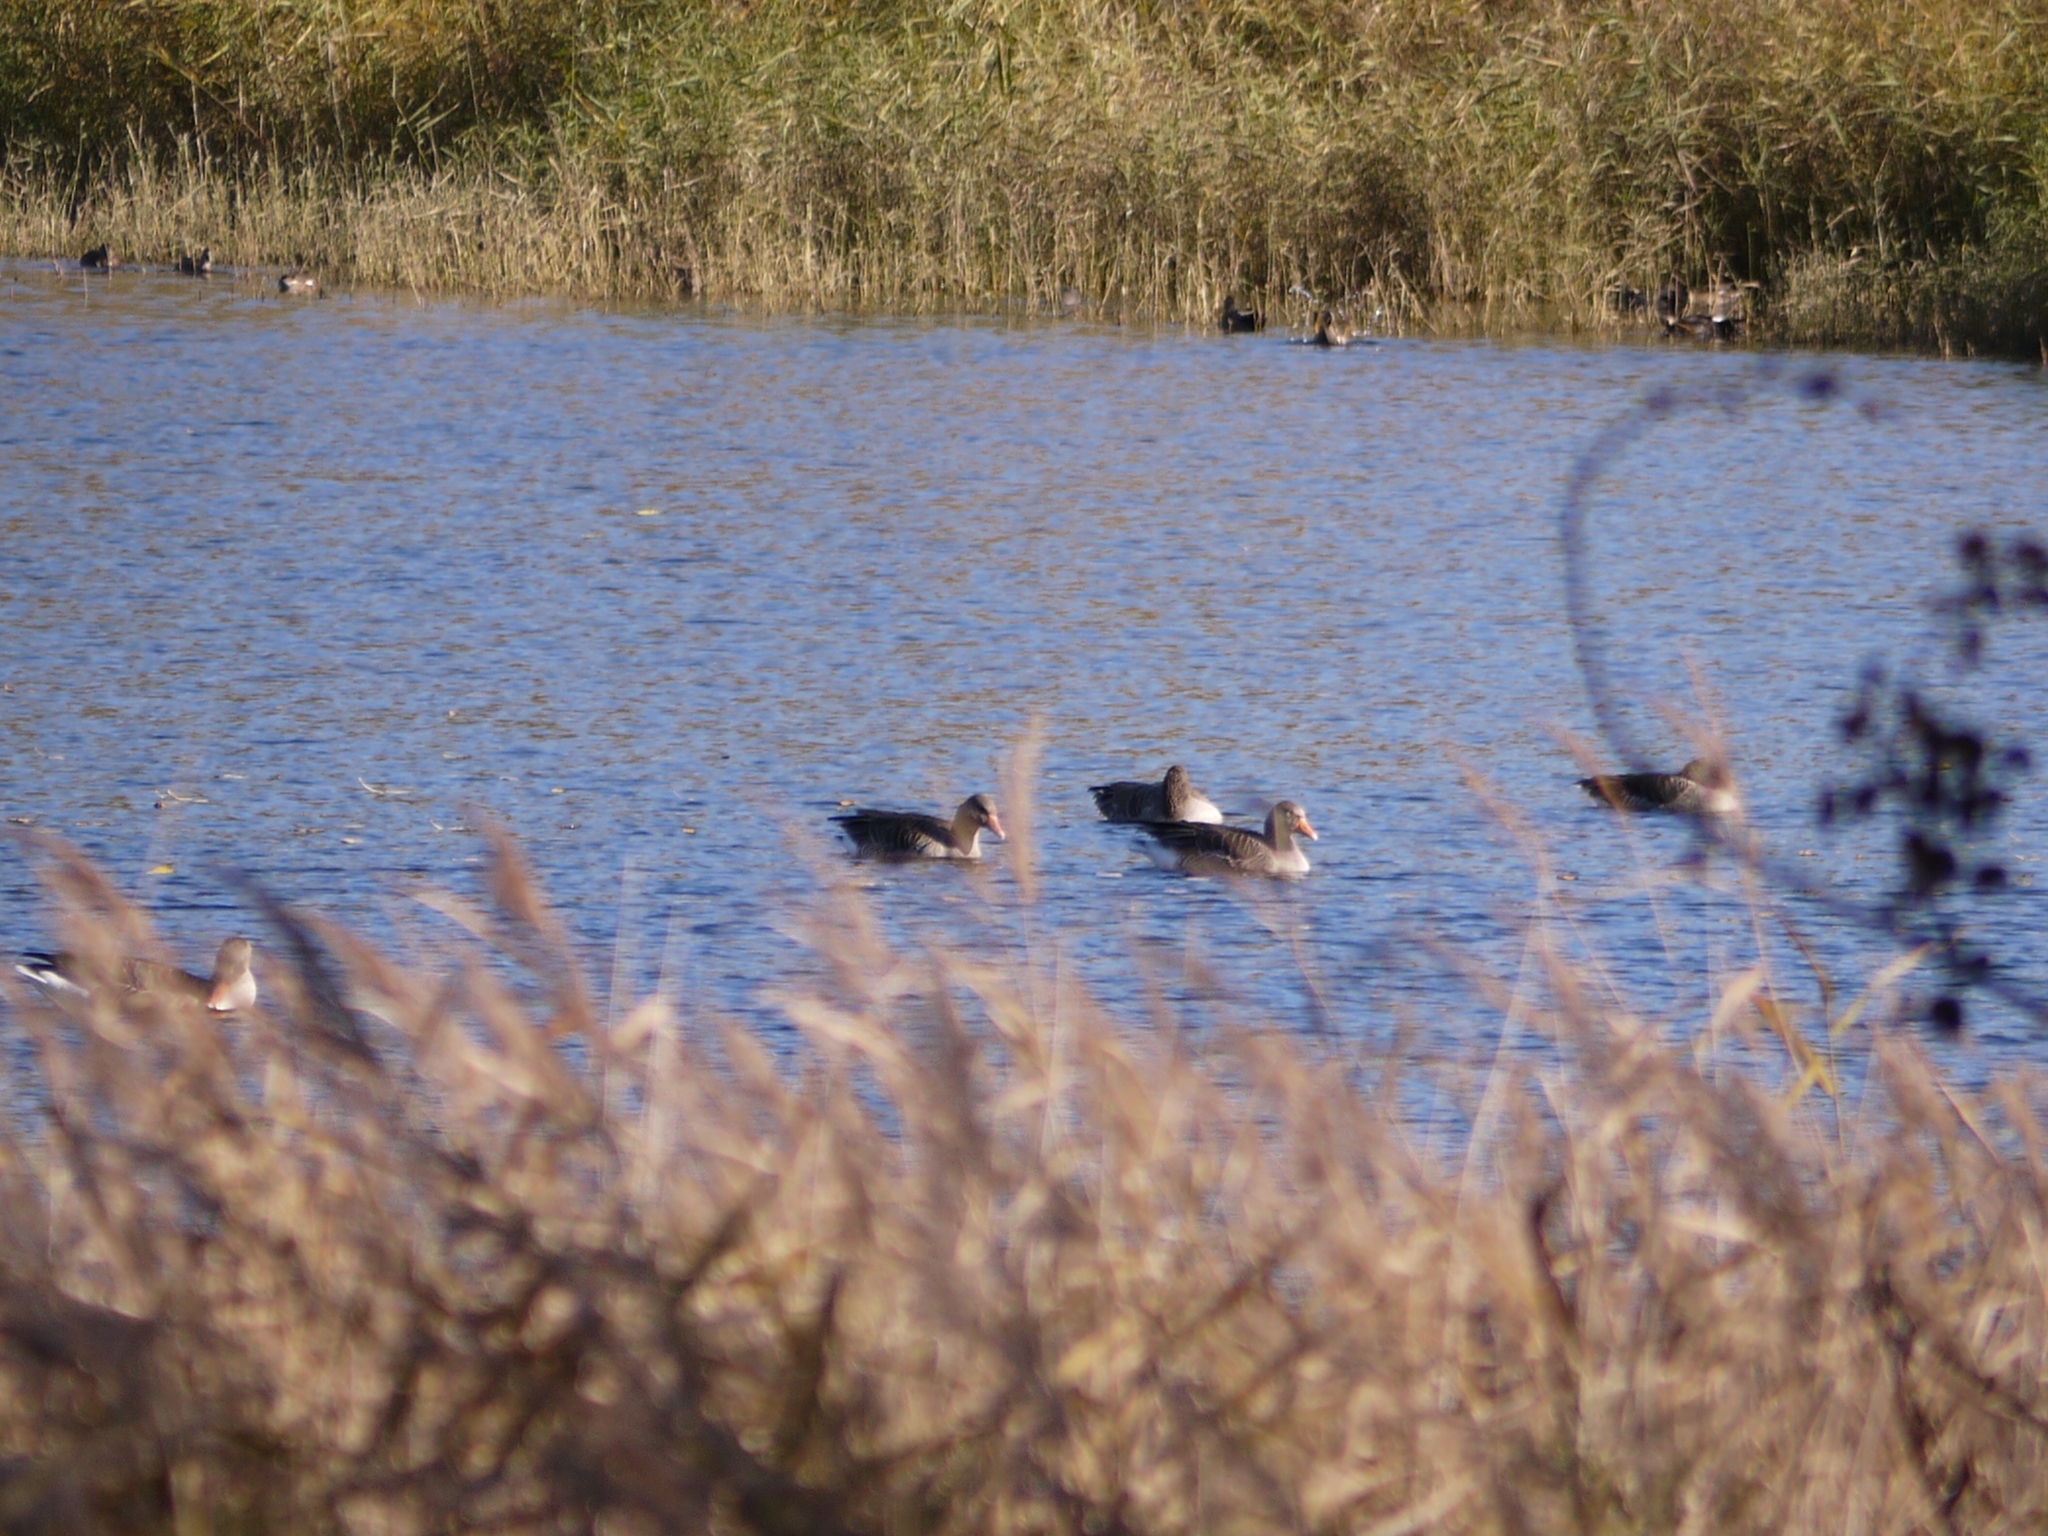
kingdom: Animalia
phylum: Chordata
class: Aves
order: Anseriformes
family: Anatidae
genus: Anser
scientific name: Anser anser
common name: Greylag goose
